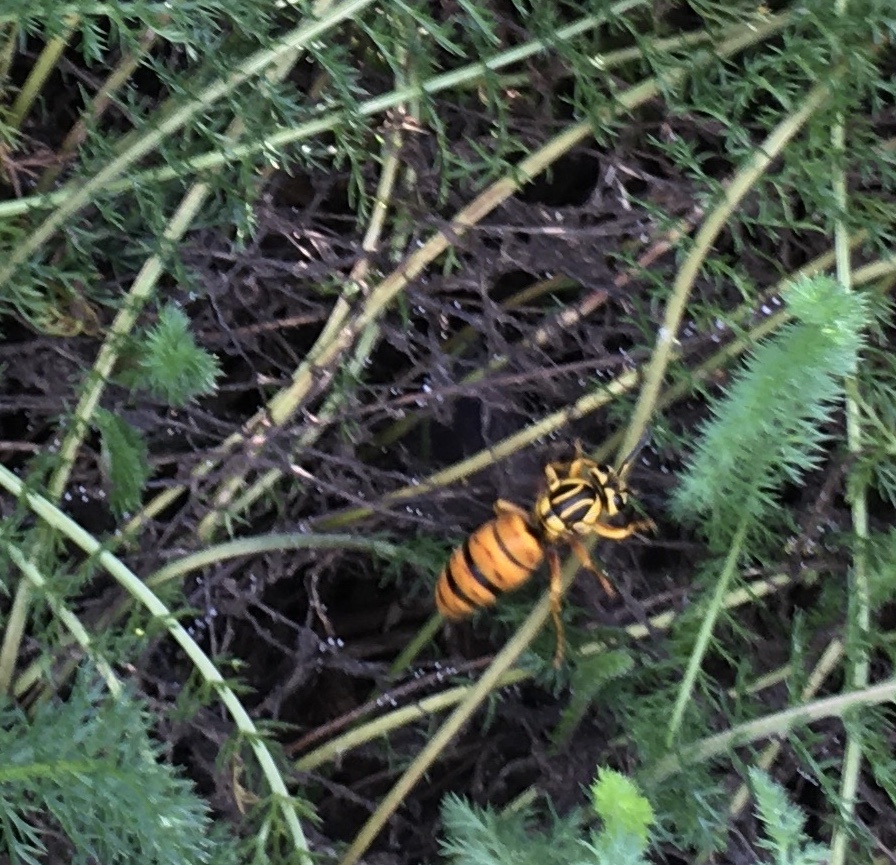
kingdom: Animalia
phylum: Arthropoda
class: Insecta
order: Hymenoptera
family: Vespidae
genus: Vespula
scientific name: Vespula squamosa
